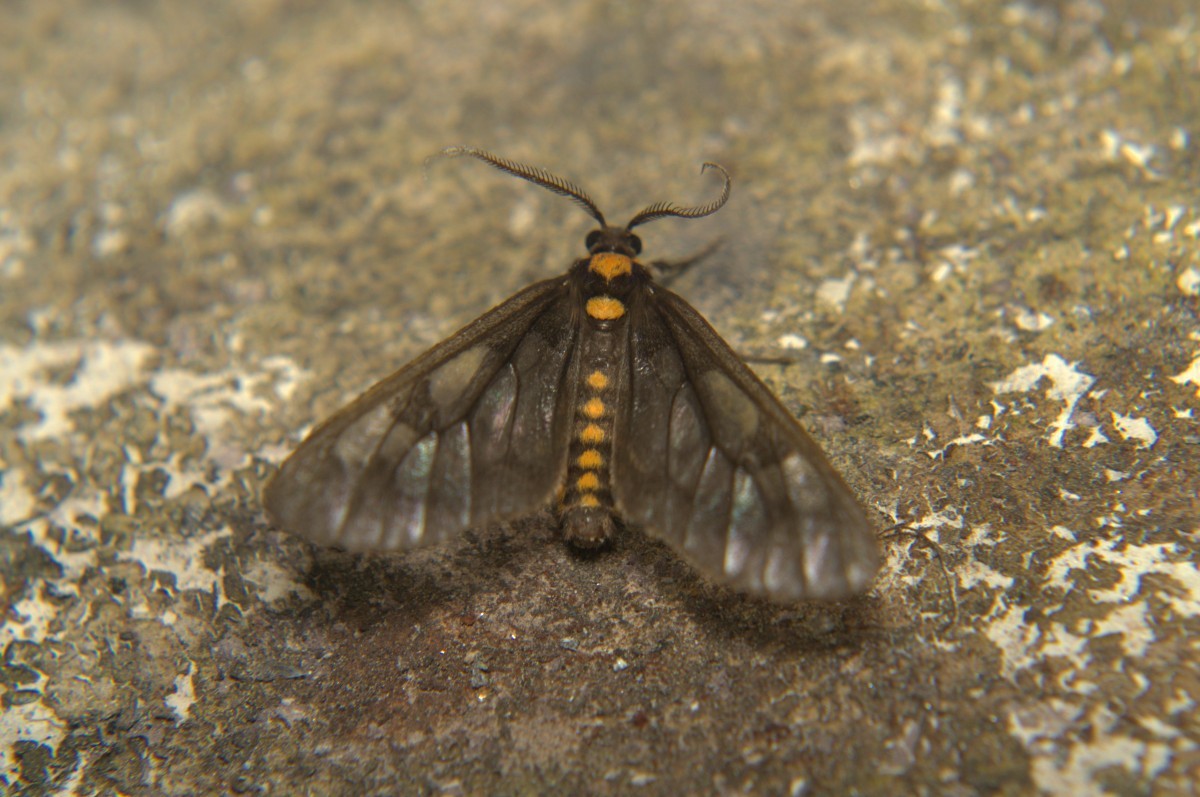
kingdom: Animalia
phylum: Arthropoda
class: Insecta
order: Lepidoptera
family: Erebidae
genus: Eressa
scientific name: Eressa confinis
